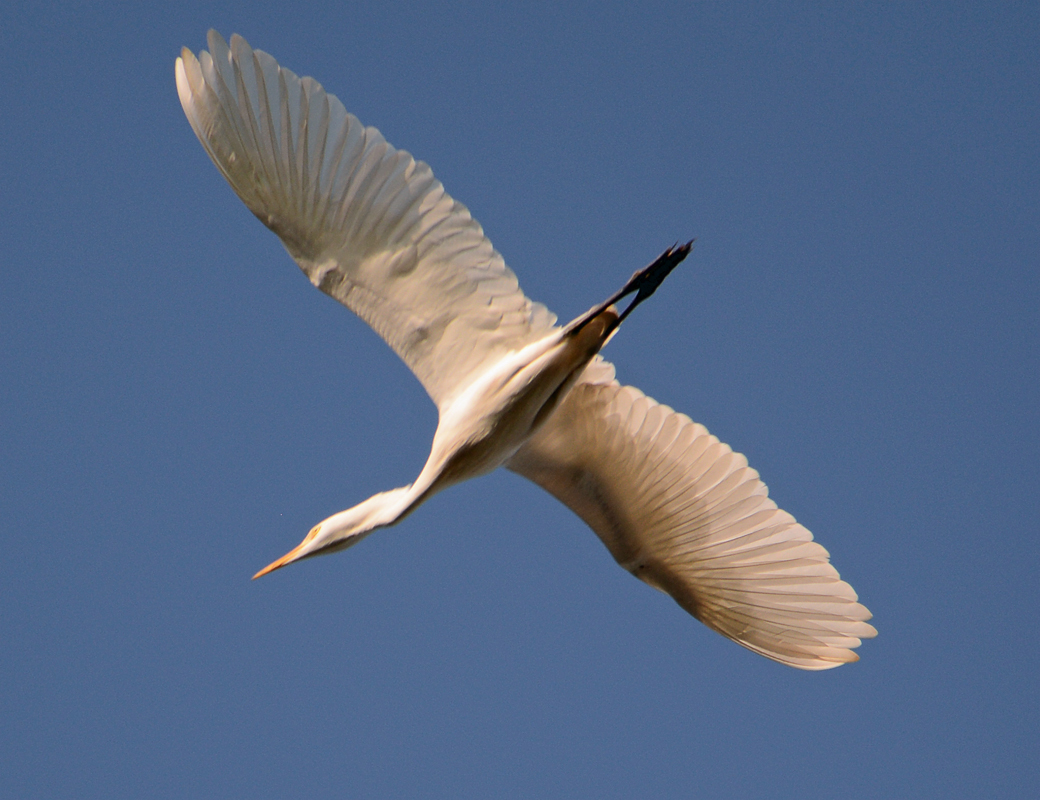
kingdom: Animalia
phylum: Chordata
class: Aves
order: Pelecaniformes
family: Ardeidae
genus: Bubulcus
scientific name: Bubulcus ibis
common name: Cattle egret
